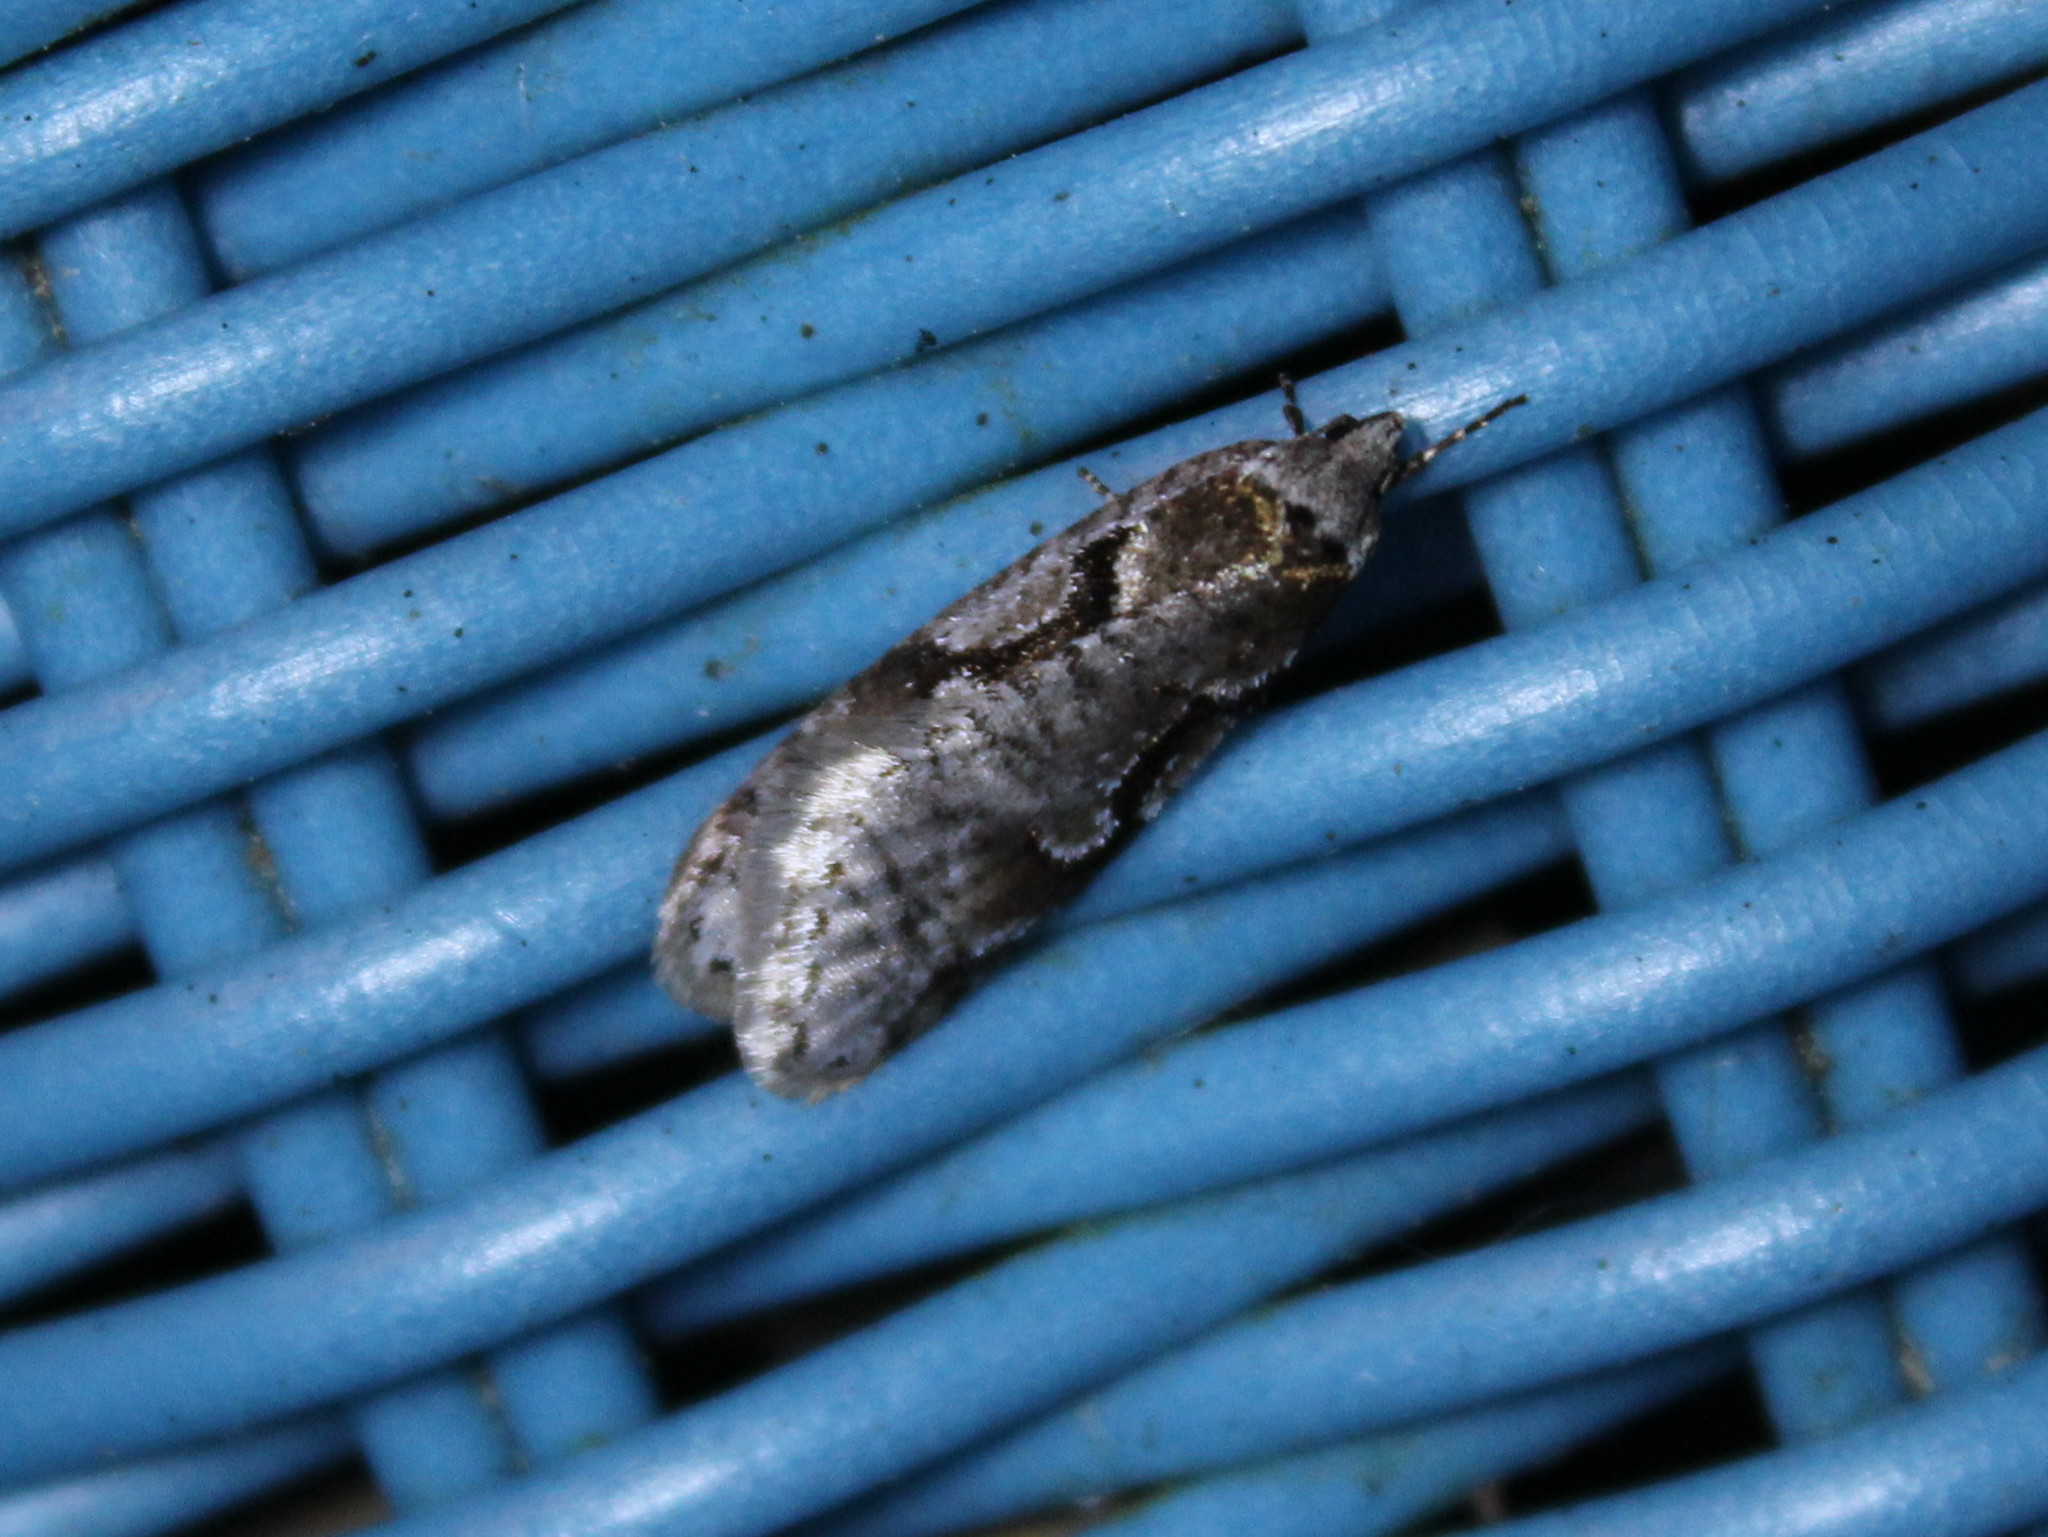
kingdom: Animalia
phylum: Arthropoda
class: Insecta
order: Lepidoptera
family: Depressariidae
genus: Semioscopis
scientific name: Semioscopis merriccella
